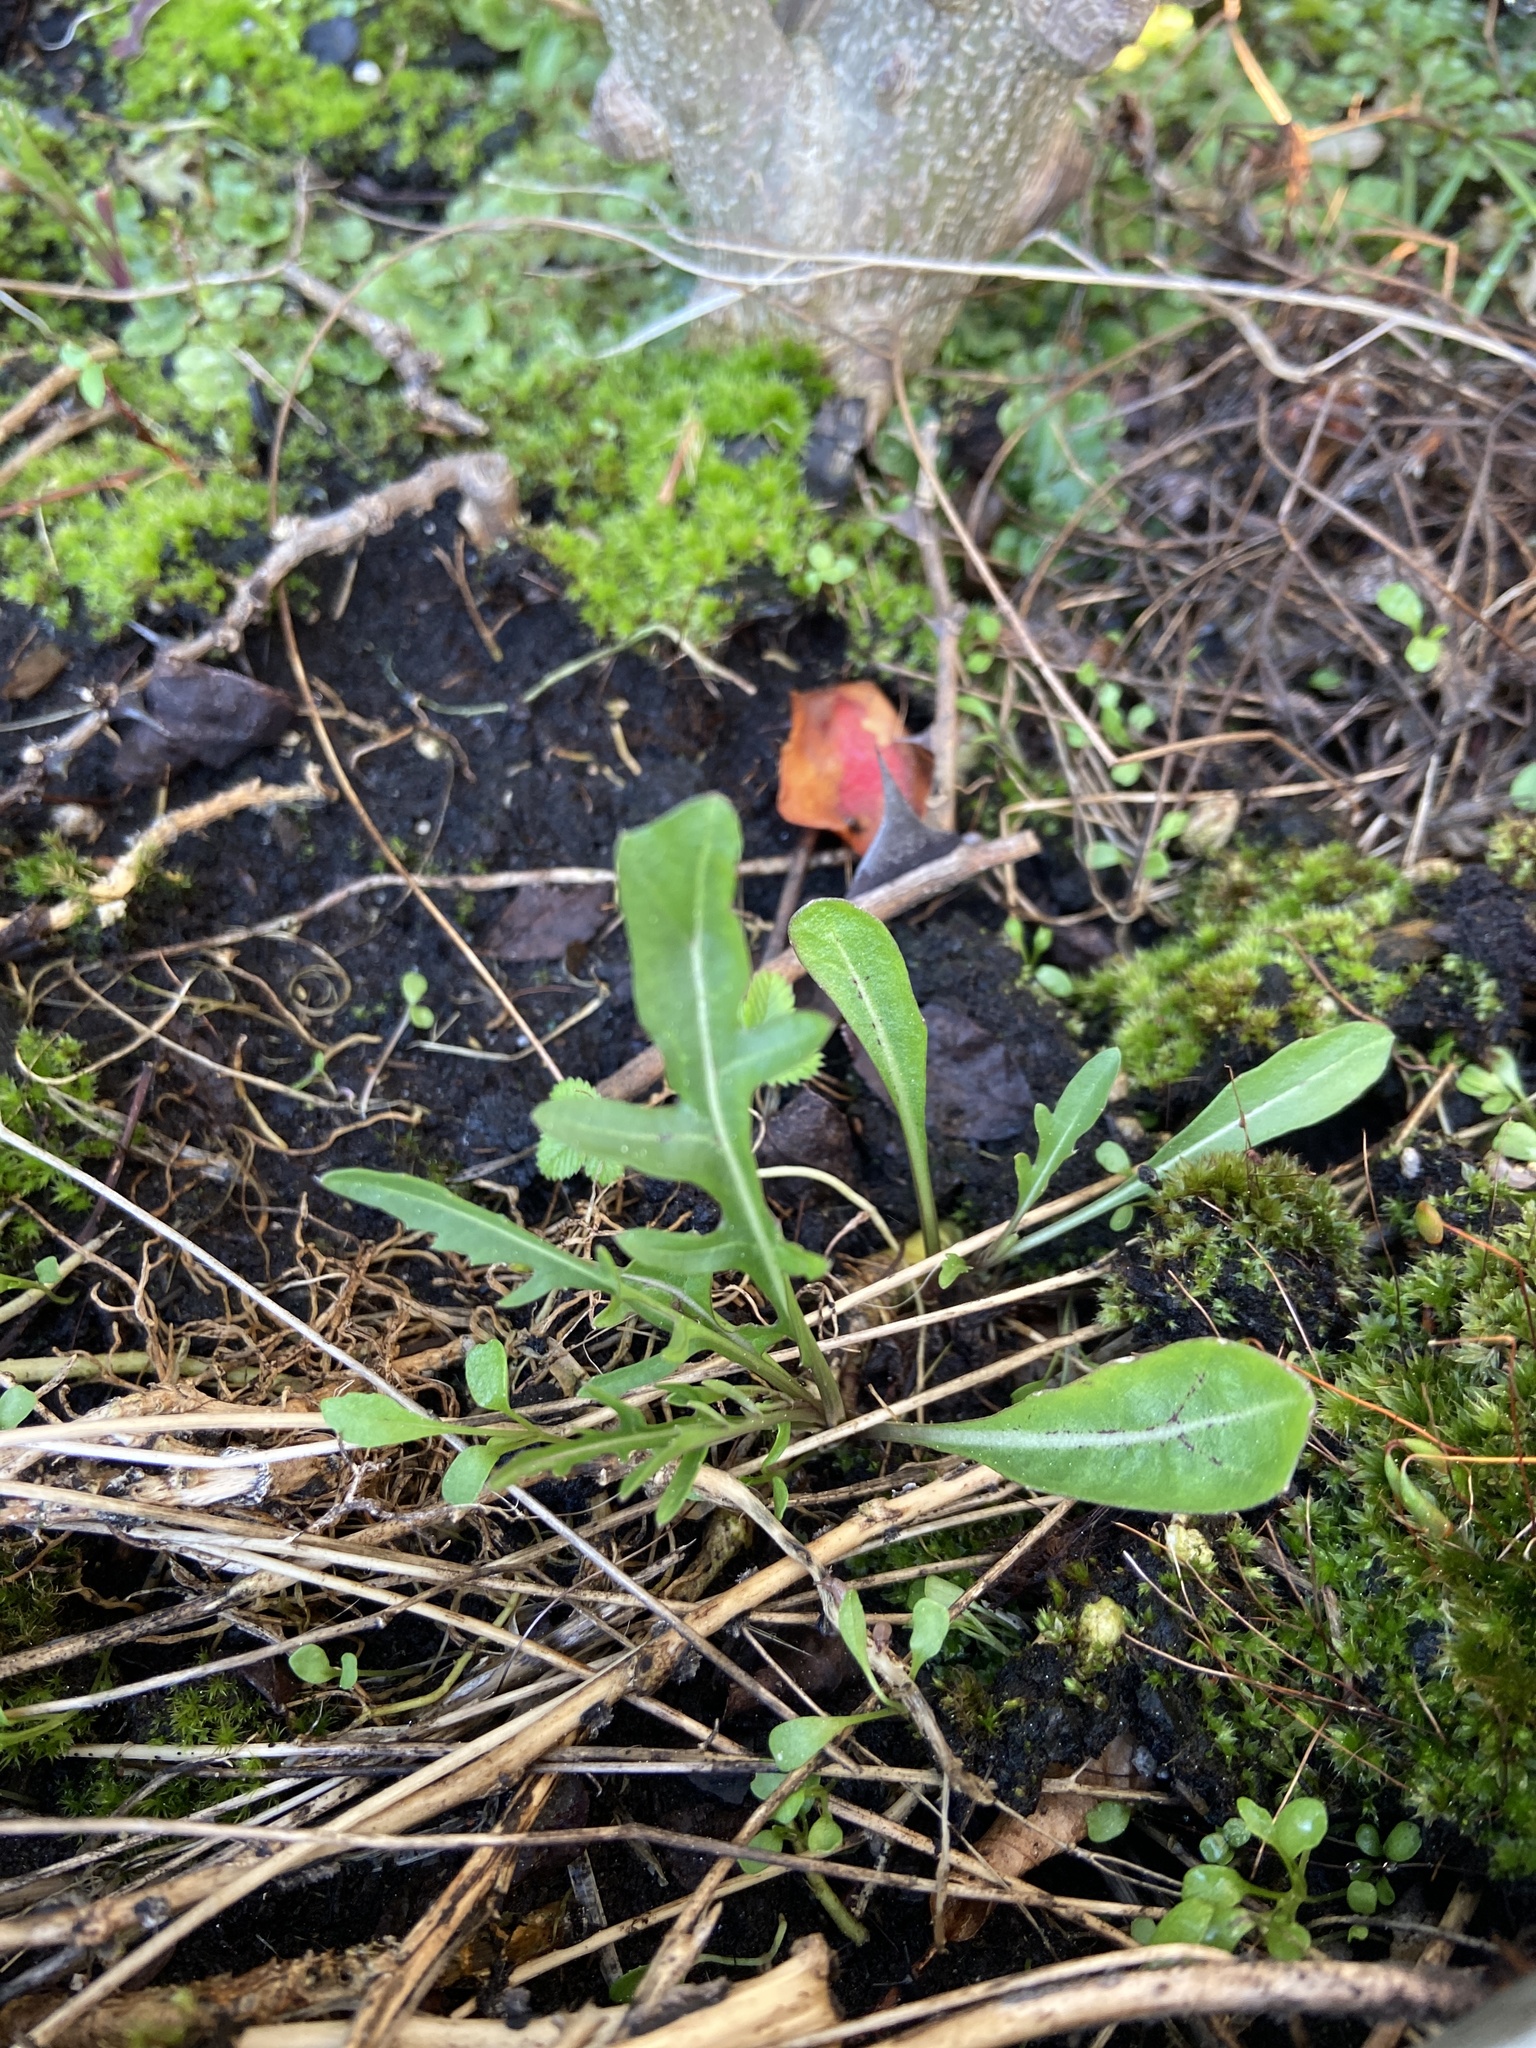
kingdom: Plantae
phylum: Tracheophyta
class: Magnoliopsida
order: Brassicales
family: Brassicaceae
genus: Diplotaxis
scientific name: Diplotaxis tenuifolia
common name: Perennial wall-rocket
